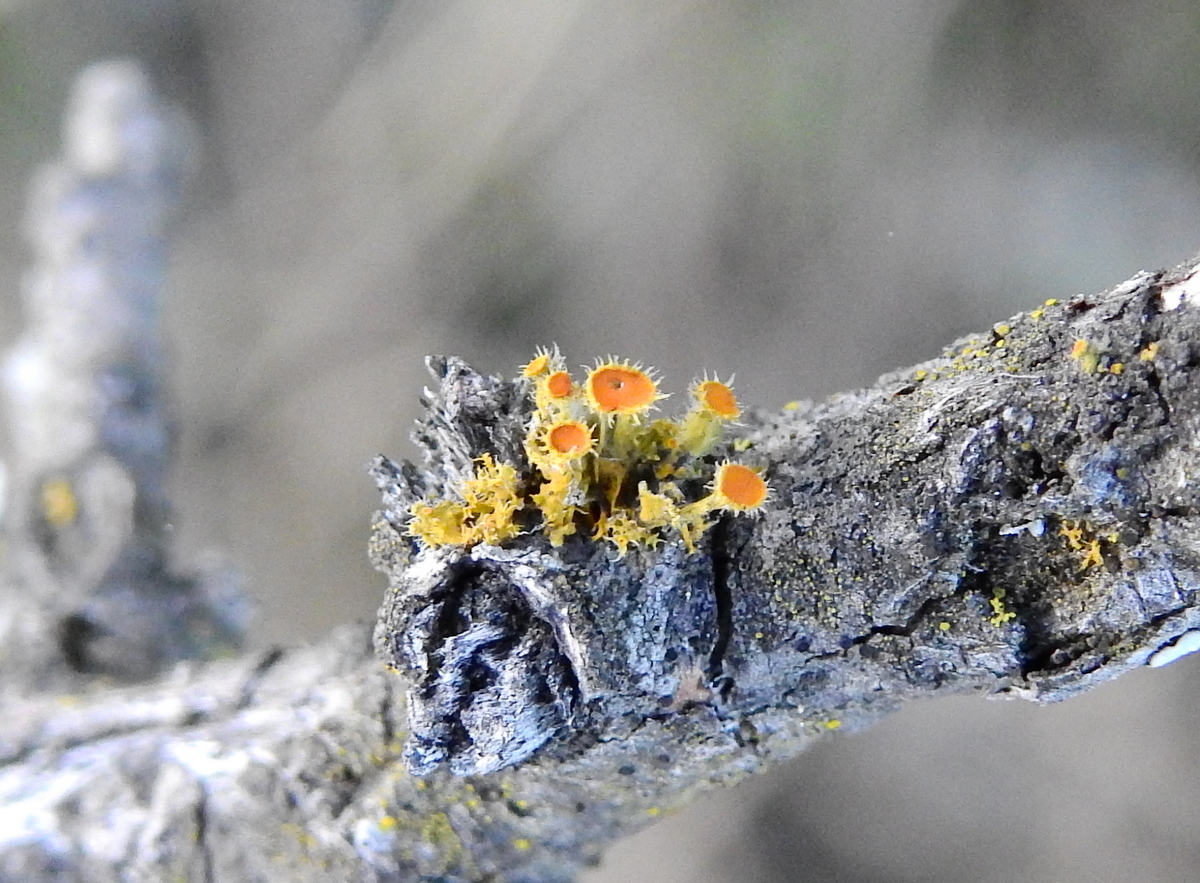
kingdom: Fungi
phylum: Ascomycota
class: Lecanoromycetes
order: Teloschistales
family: Teloschistaceae
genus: Niorma
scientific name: Niorma chrysophthalma
